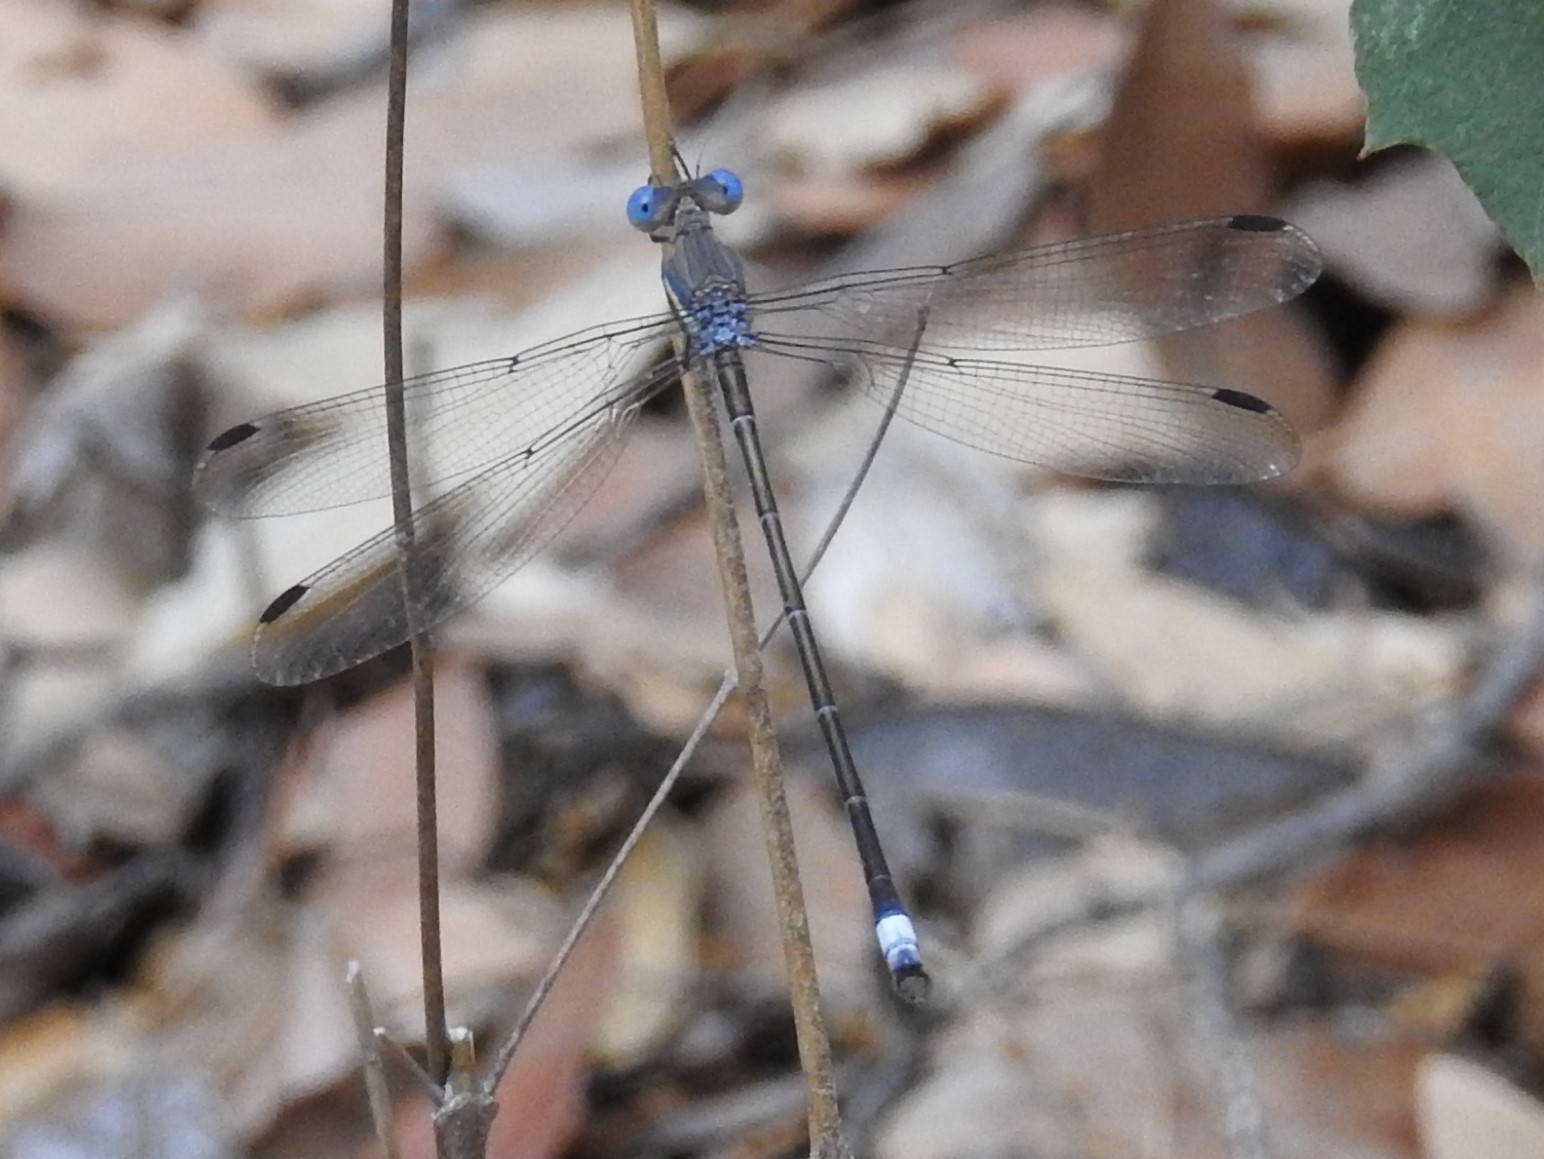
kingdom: Animalia
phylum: Arthropoda
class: Insecta
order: Odonata
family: Lestidae
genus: Archilestes
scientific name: Archilestes grandis
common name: Great spreadwing
